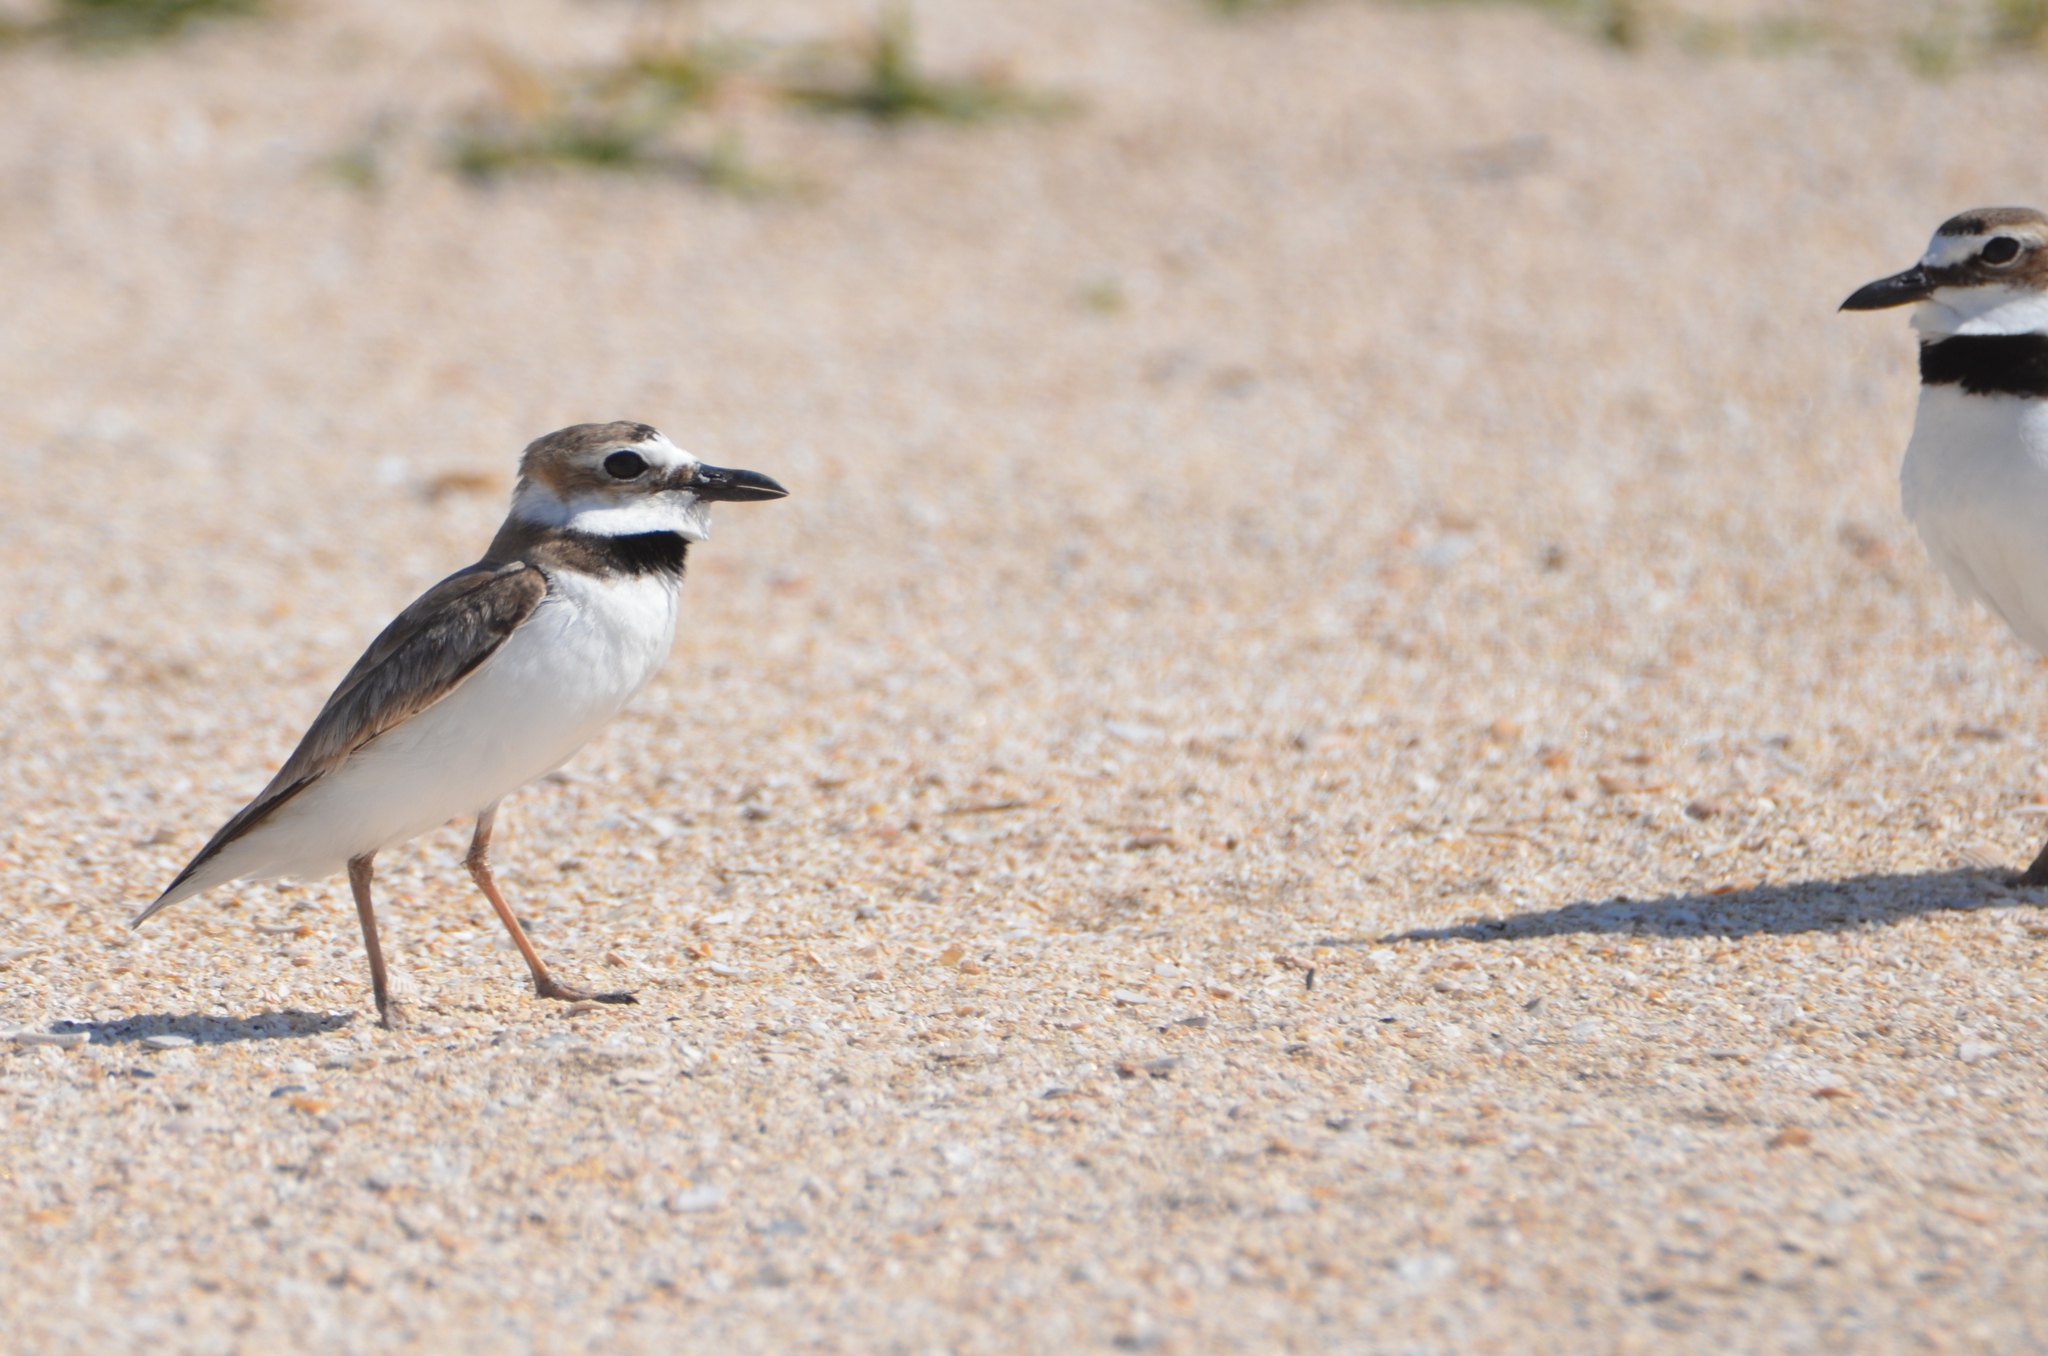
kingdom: Animalia
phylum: Chordata
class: Aves
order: Charadriiformes
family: Charadriidae
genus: Anarhynchus
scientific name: Anarhynchus
